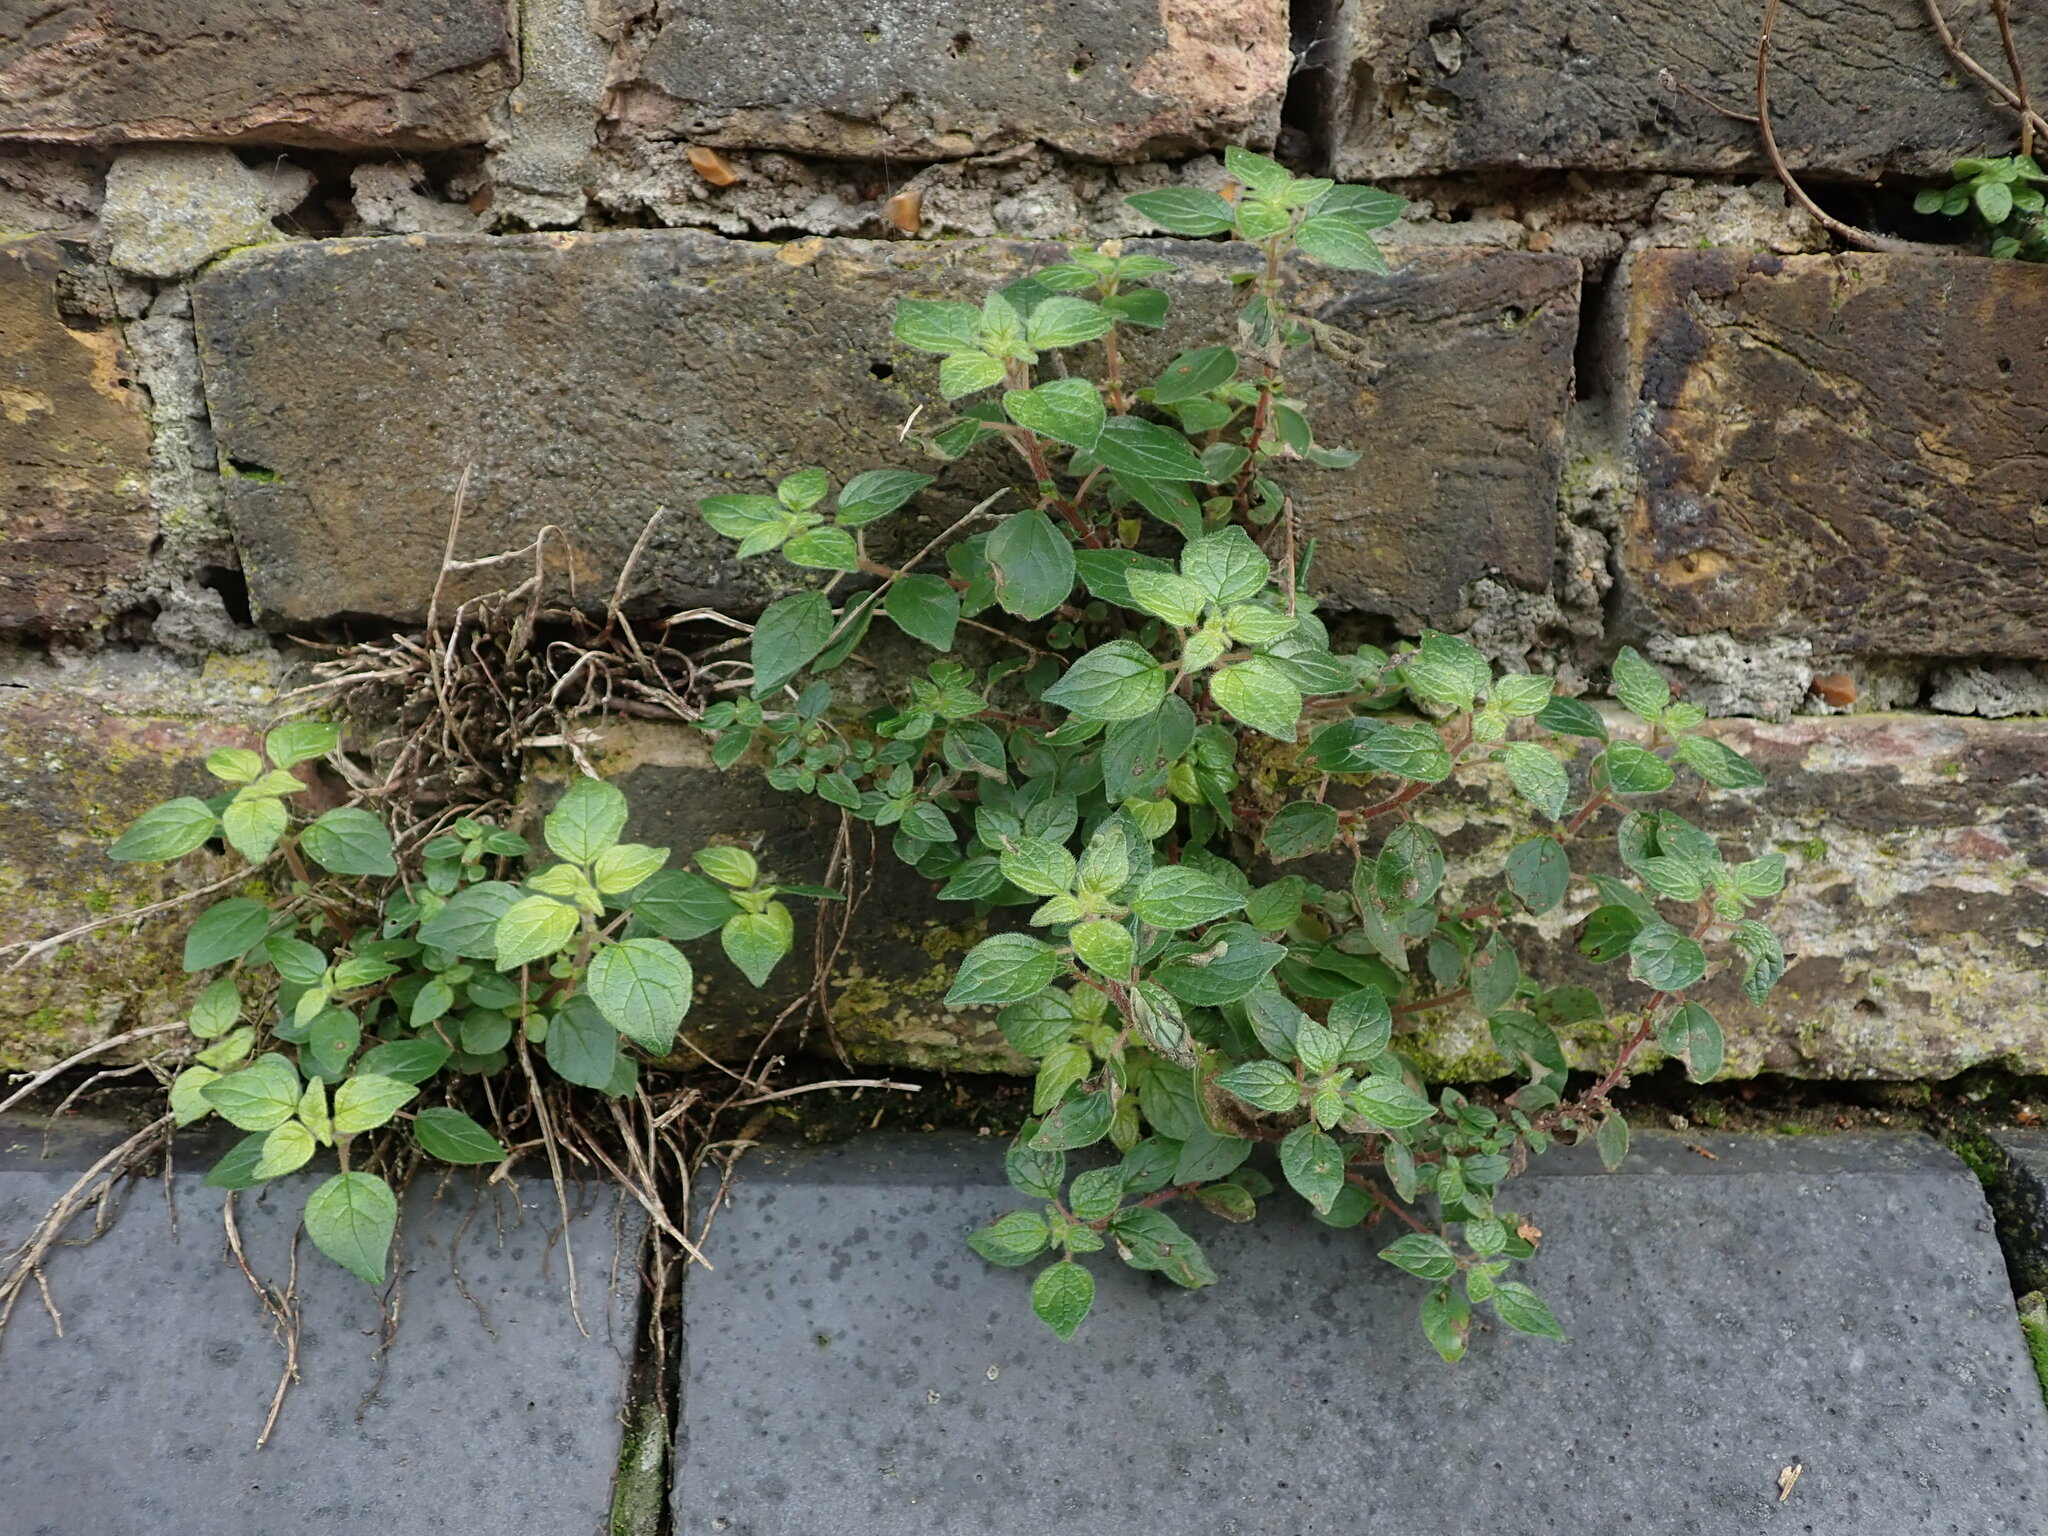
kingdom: Plantae
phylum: Tracheophyta
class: Magnoliopsida
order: Rosales
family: Urticaceae
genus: Parietaria
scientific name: Parietaria judaica
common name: Pellitory-of-the-wall
